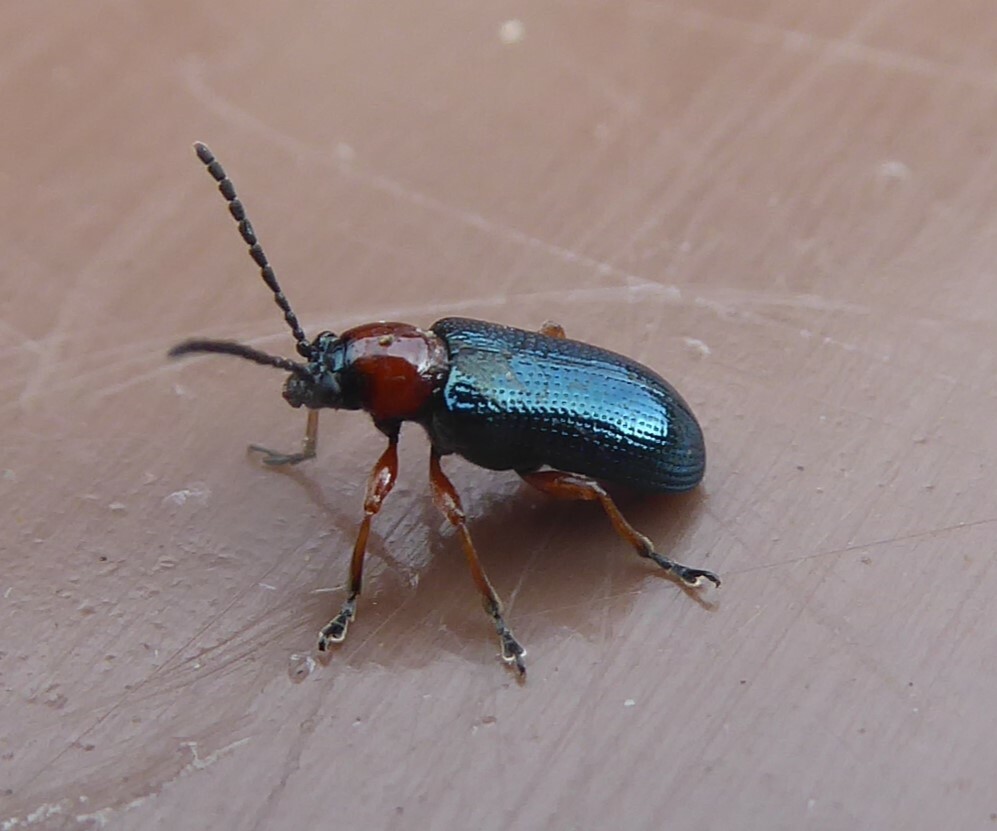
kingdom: Animalia
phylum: Arthropoda
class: Insecta
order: Coleoptera
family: Chrysomelidae
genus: Oulema
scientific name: Oulema
